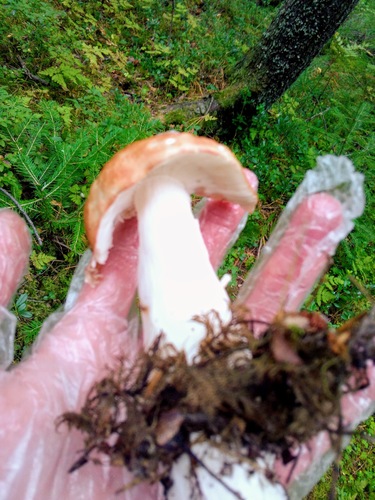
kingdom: Fungi
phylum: Basidiomycota
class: Agaricomycetes
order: Russulales
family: Russulaceae
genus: Russula
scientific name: Russula
